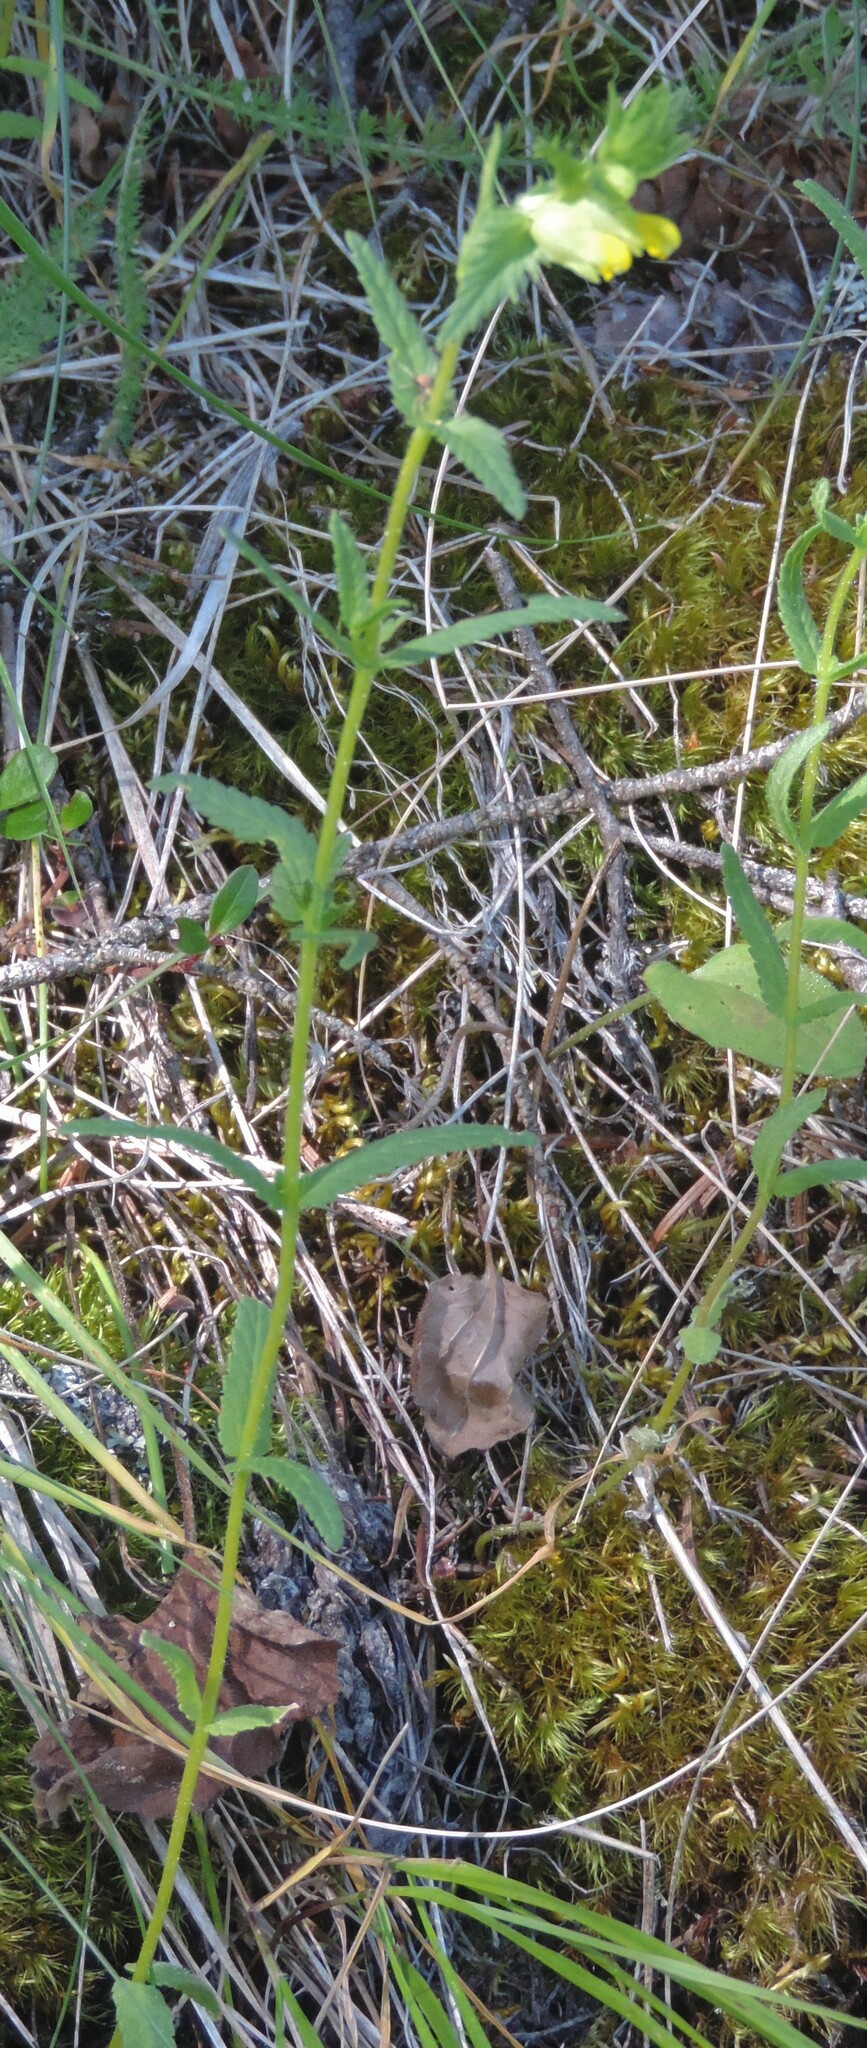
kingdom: Plantae
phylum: Tracheophyta
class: Magnoliopsida
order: Lamiales
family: Orobanchaceae
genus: Rhinanthus
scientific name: Rhinanthus groenlandicus
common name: Little yellow rattle
